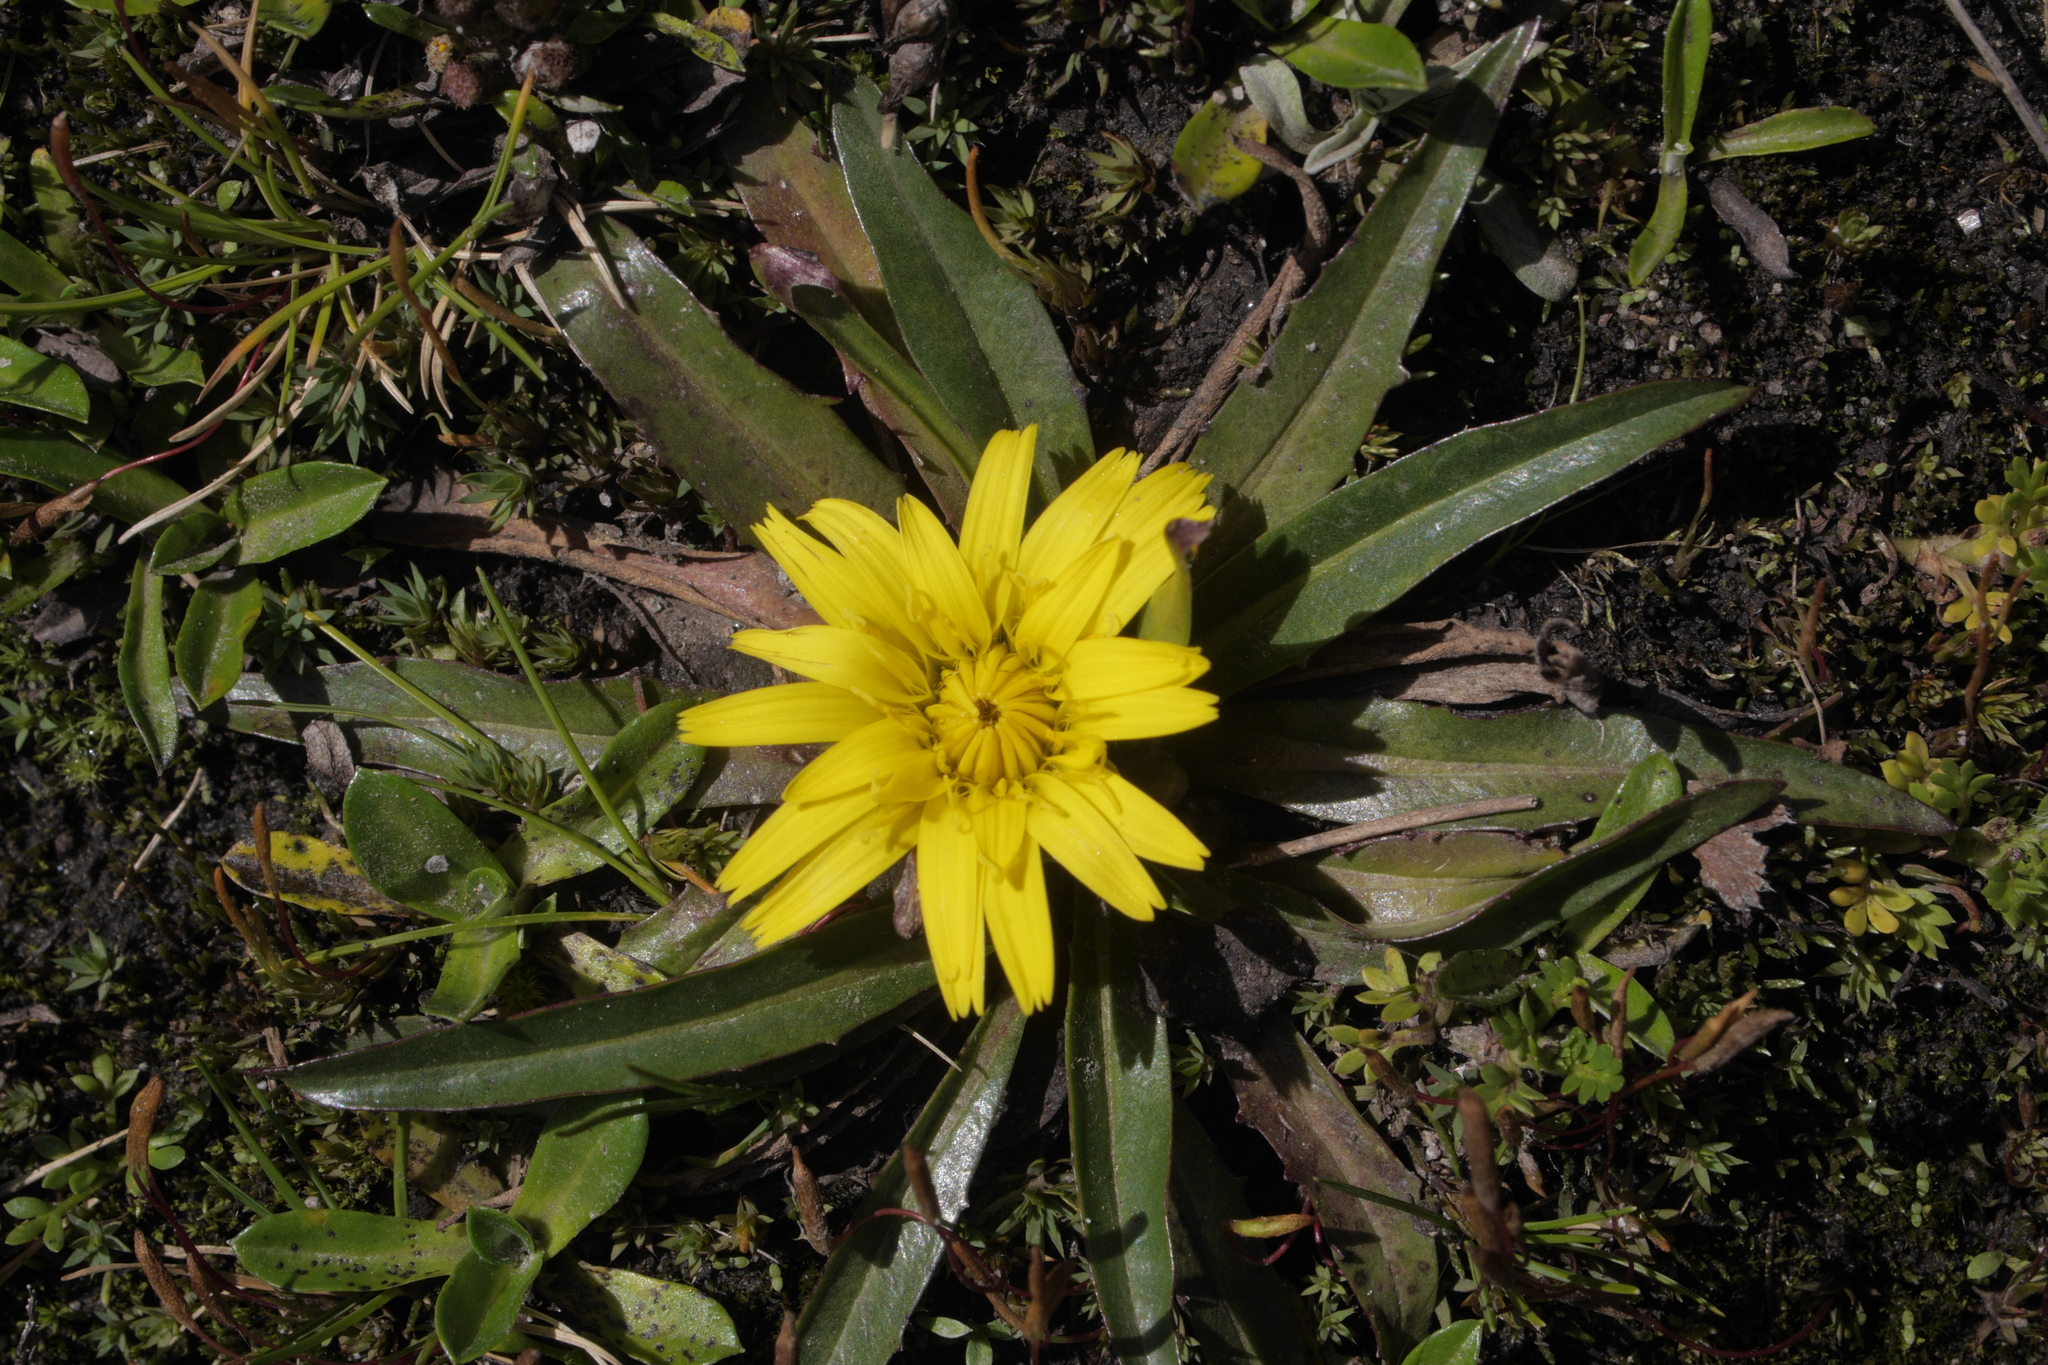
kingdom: Plantae
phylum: Tracheophyta
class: Magnoliopsida
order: Asterales
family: Asteraceae
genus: Hypochaeris
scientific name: Hypochaeris sessiliflora
